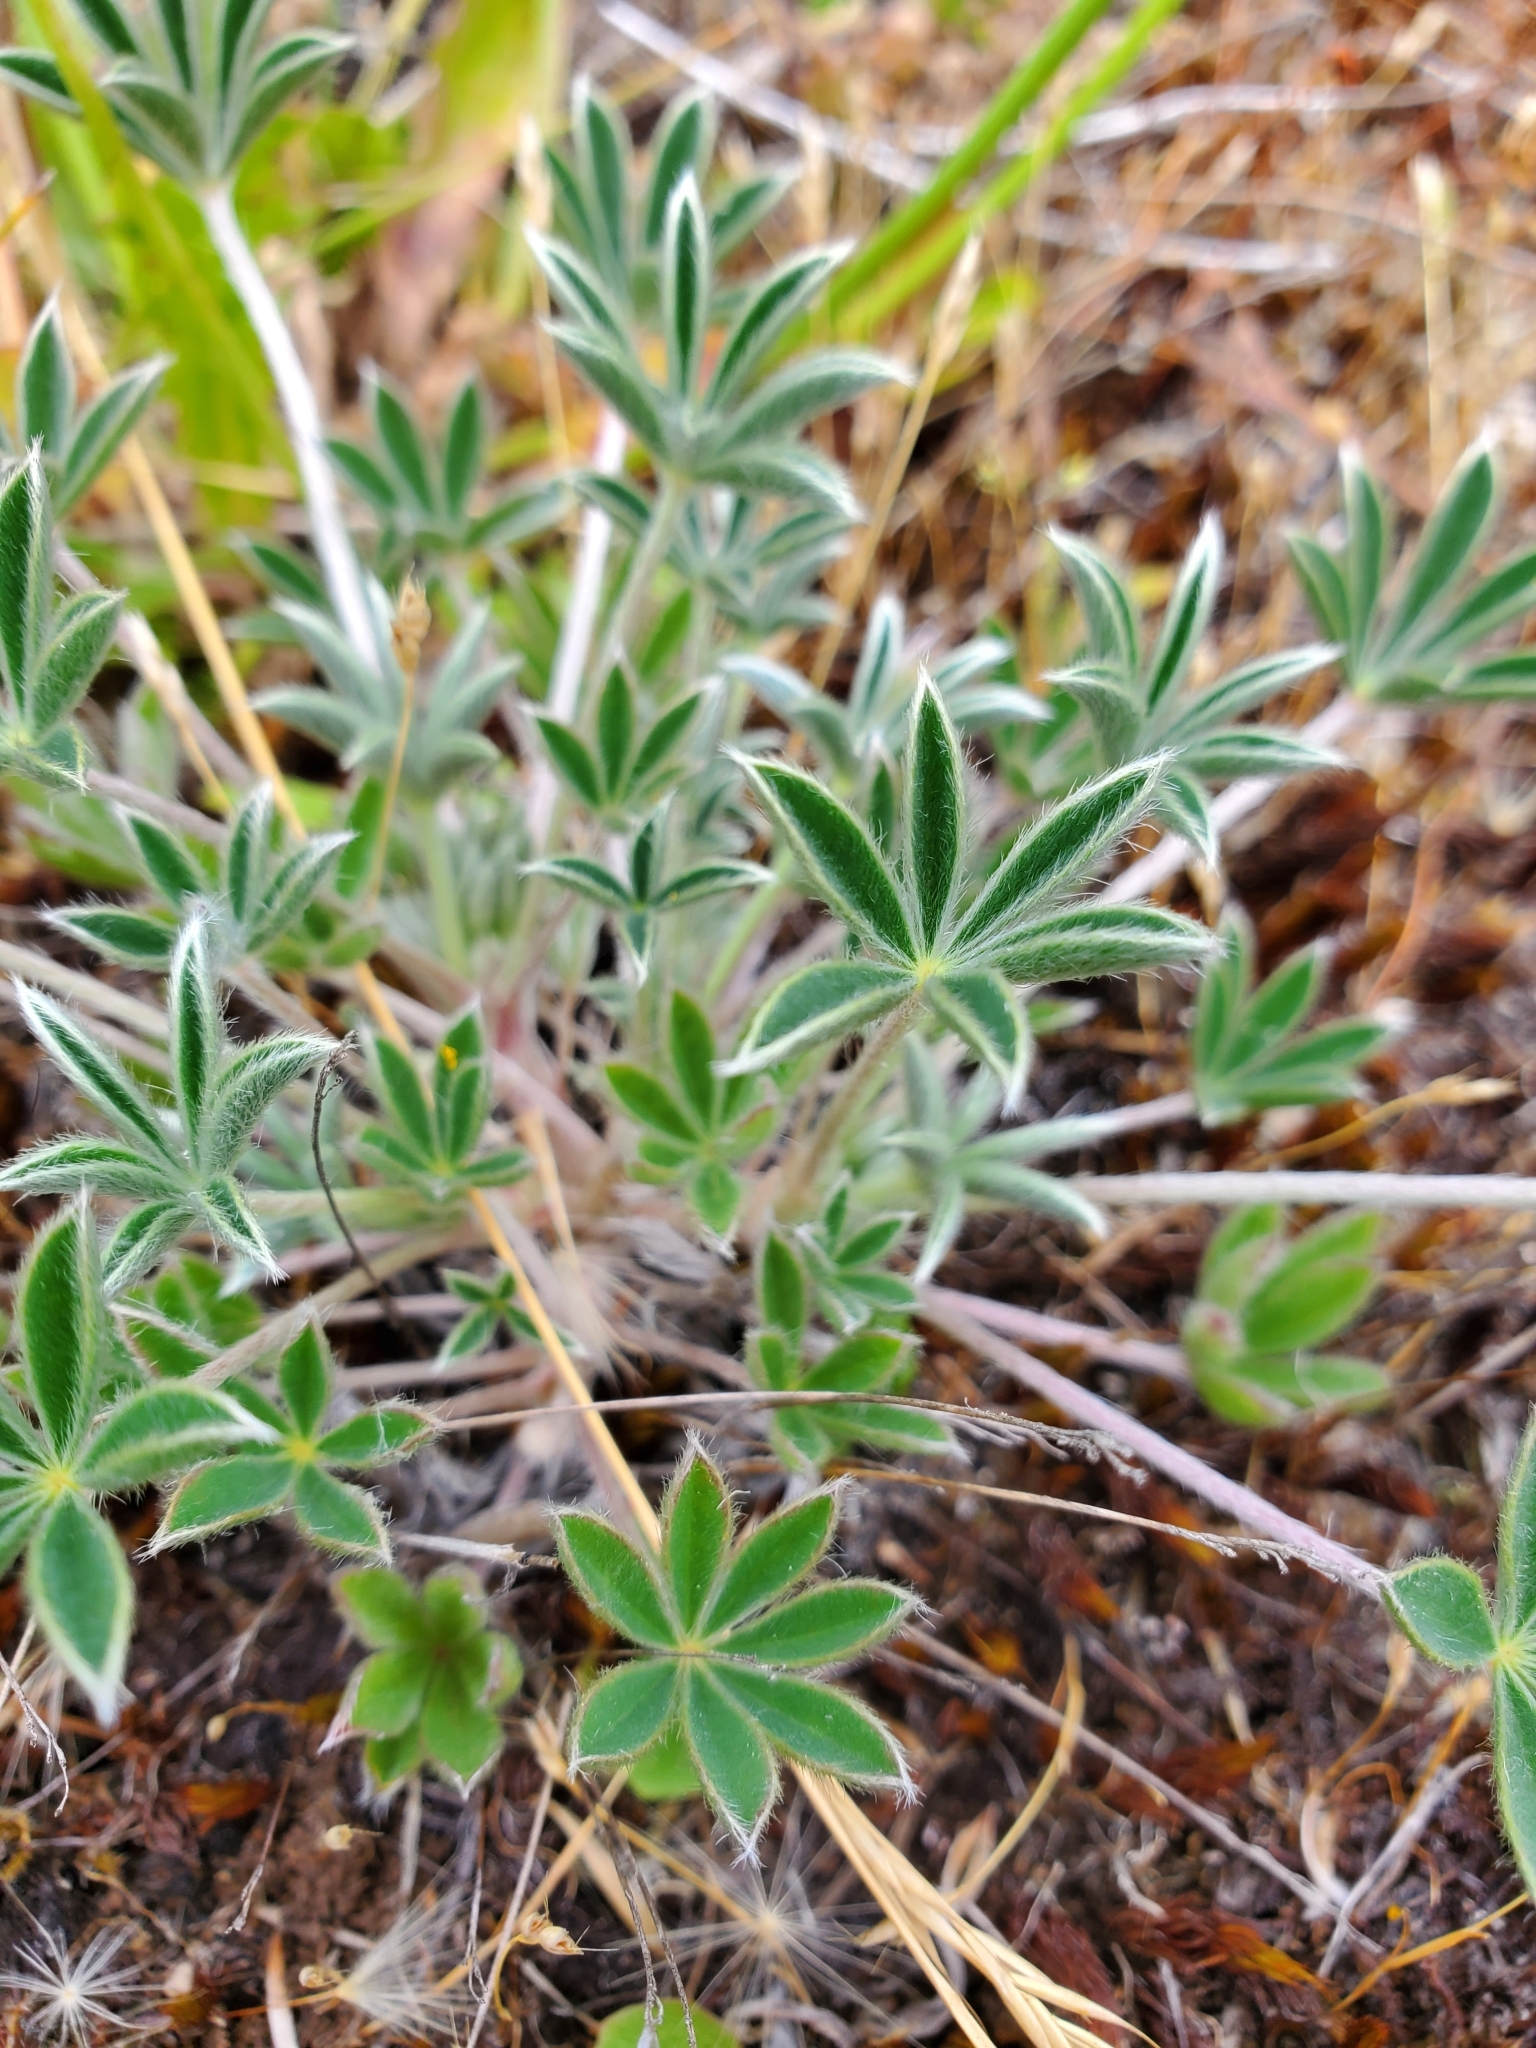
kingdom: Plantae
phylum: Tracheophyta
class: Magnoliopsida
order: Fabales
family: Fabaceae
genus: Lupinus
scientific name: Lupinus lepidus
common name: Prairie lupine
